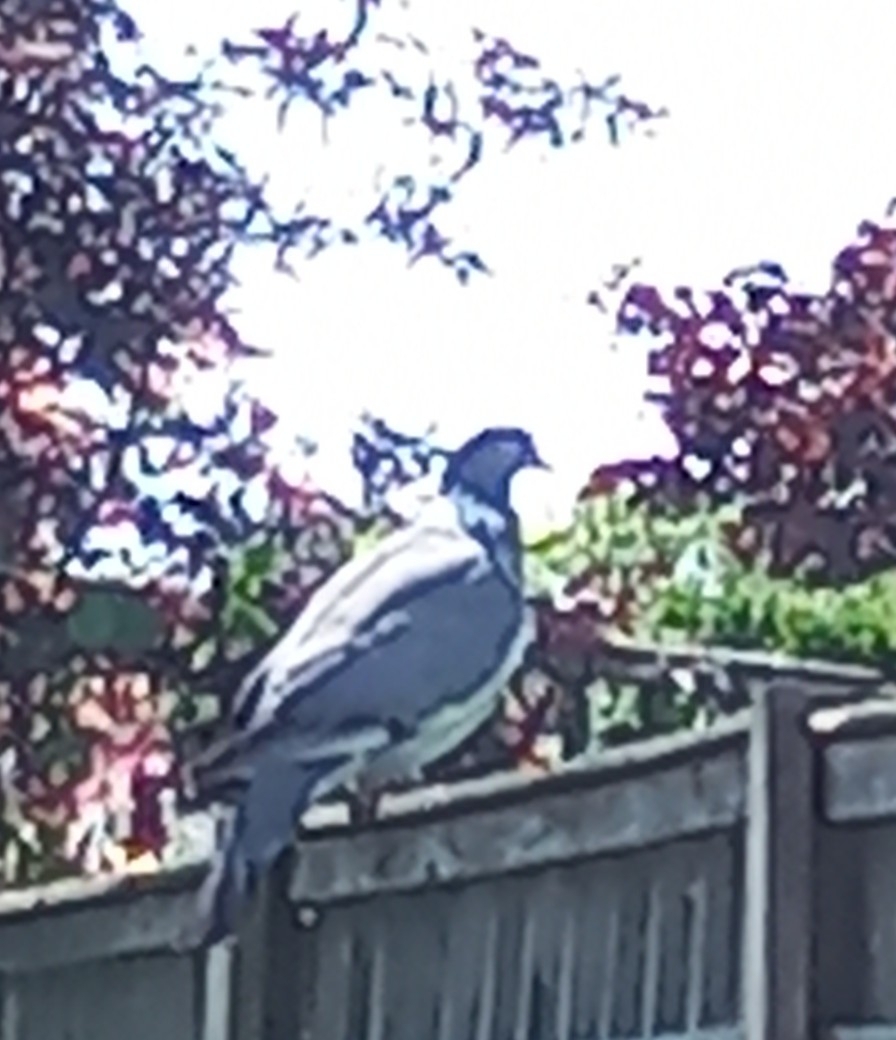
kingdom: Animalia
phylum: Chordata
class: Aves
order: Columbiformes
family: Columbidae
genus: Columba
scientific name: Columba palumbus
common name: Common wood pigeon
